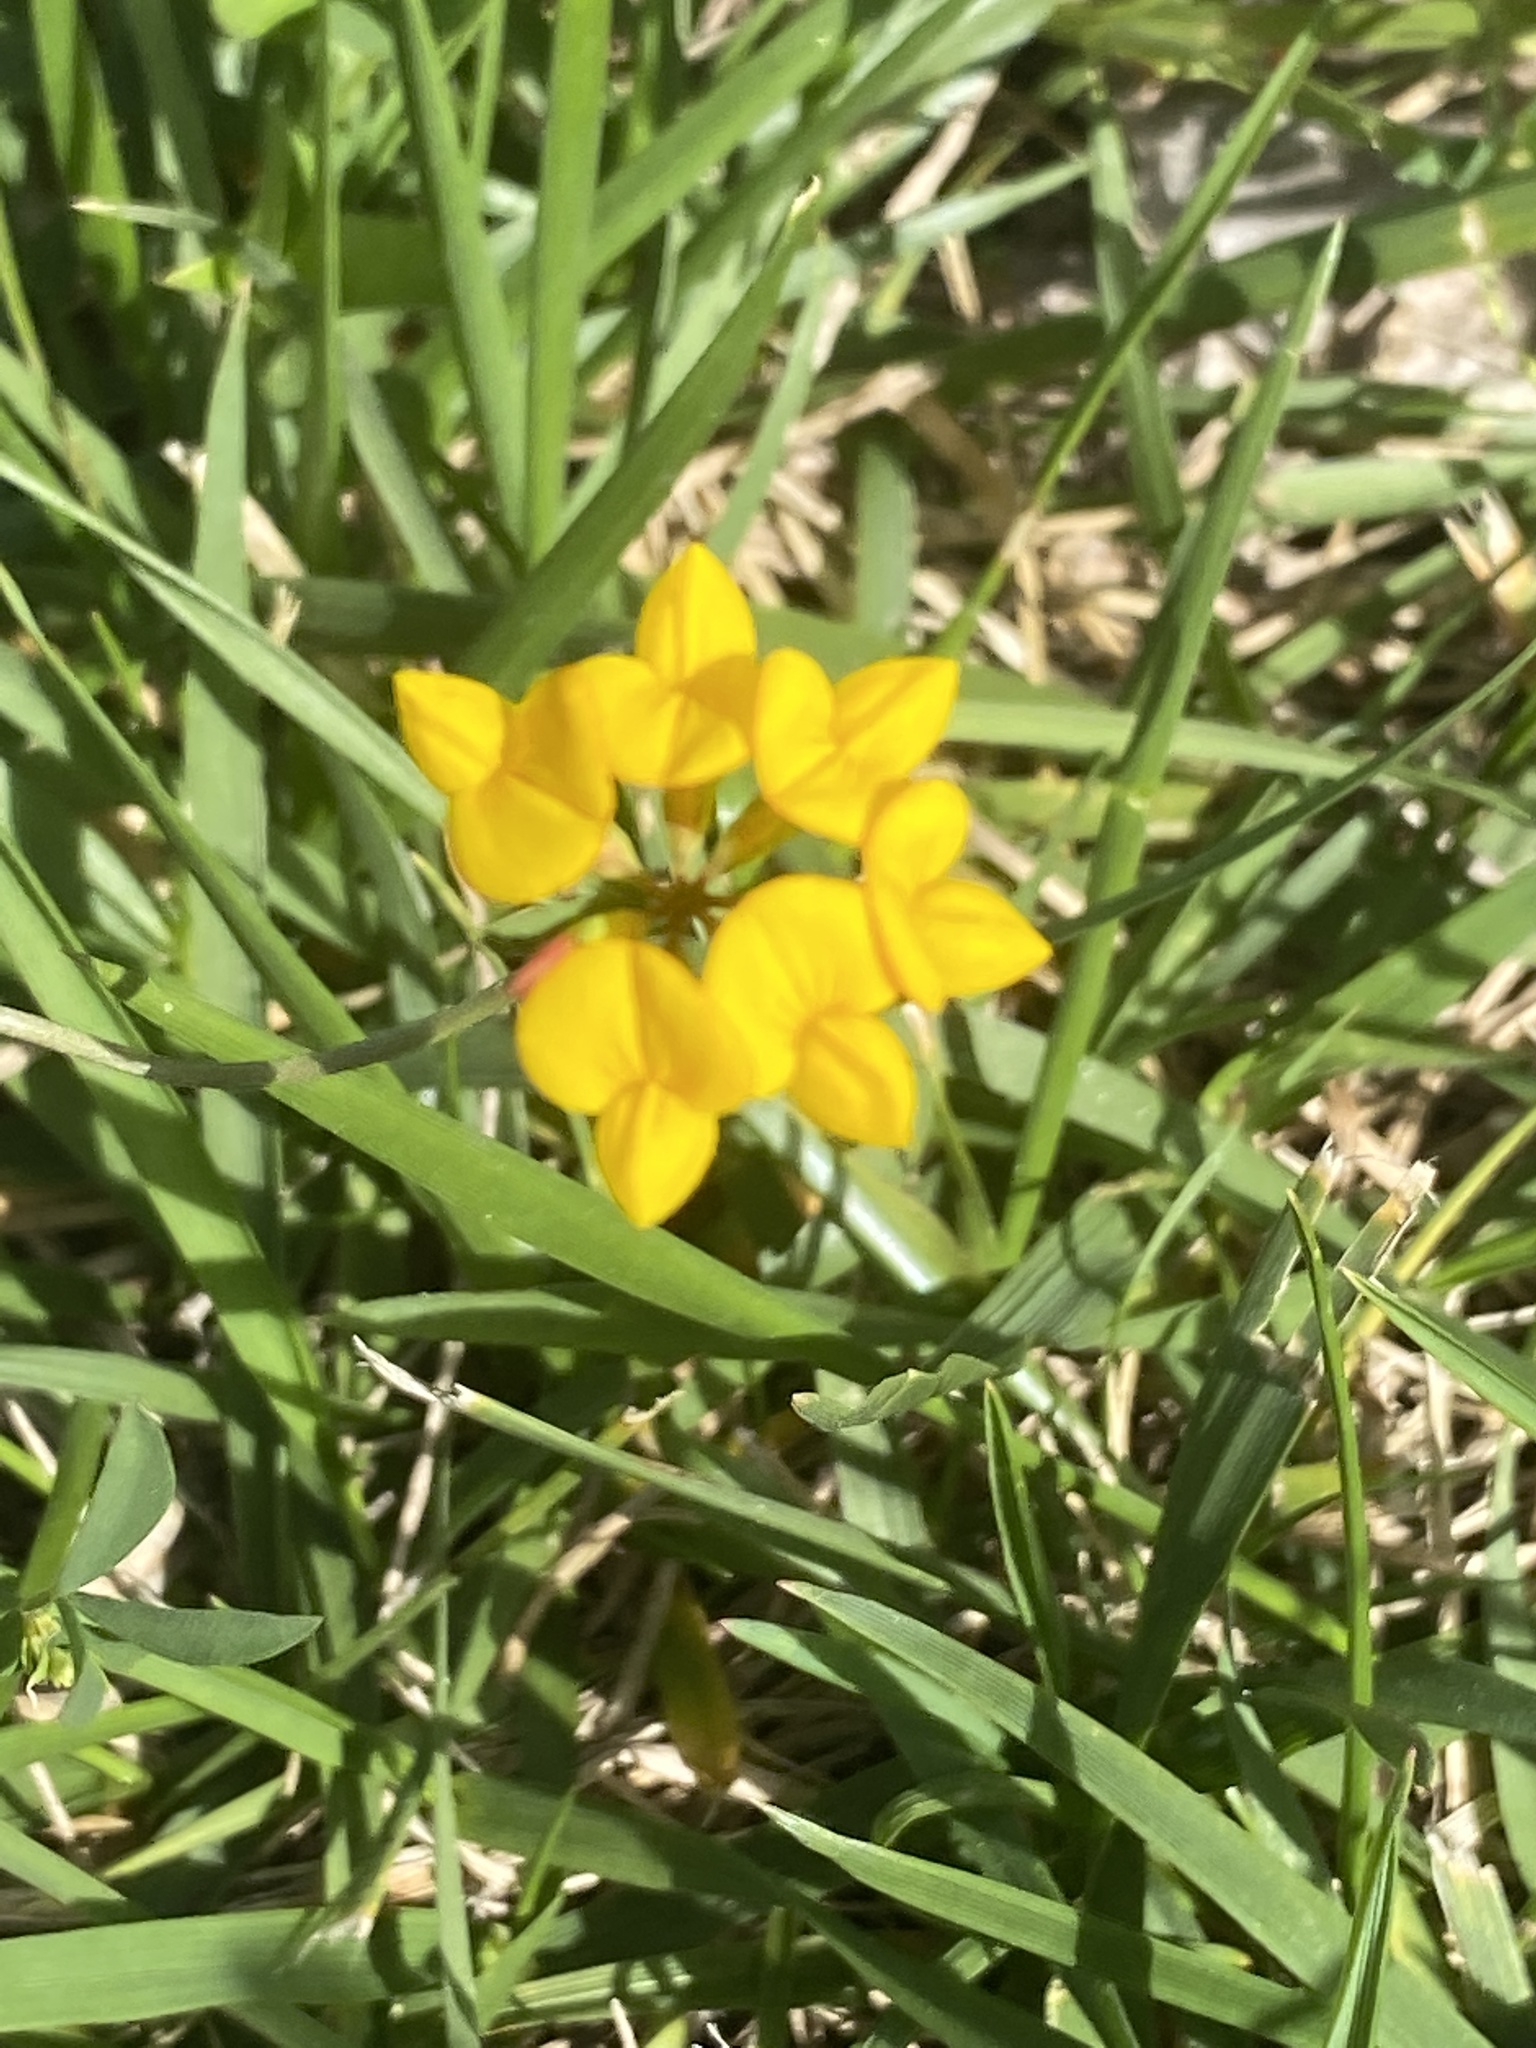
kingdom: Plantae
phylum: Tracheophyta
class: Magnoliopsida
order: Fabales
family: Fabaceae
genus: Lotus
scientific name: Lotus corniculatus
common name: Common bird's-foot-trefoil
